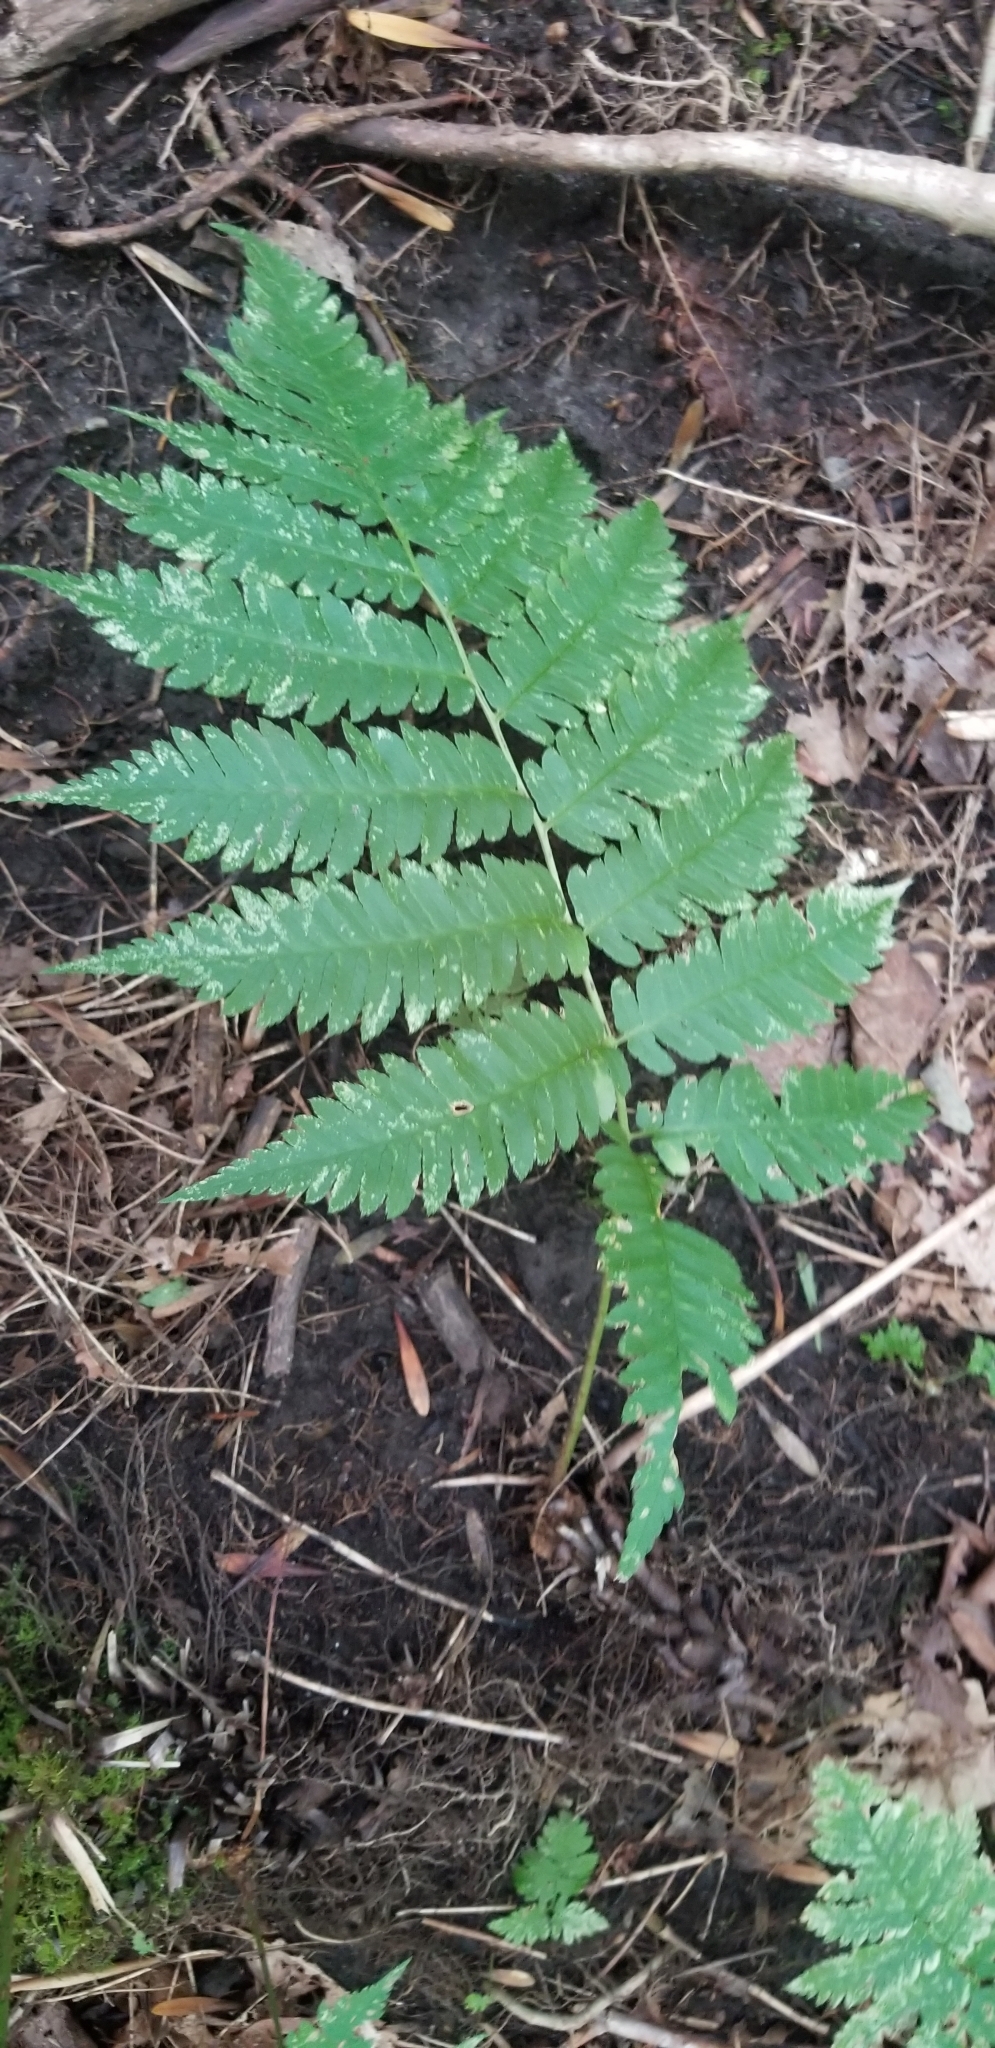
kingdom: Plantae
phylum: Tracheophyta
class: Polypodiopsida
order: Polypodiales
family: Dryopteridaceae
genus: Dryopteris
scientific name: Dryopteris goldieana
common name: Goldie's fern
